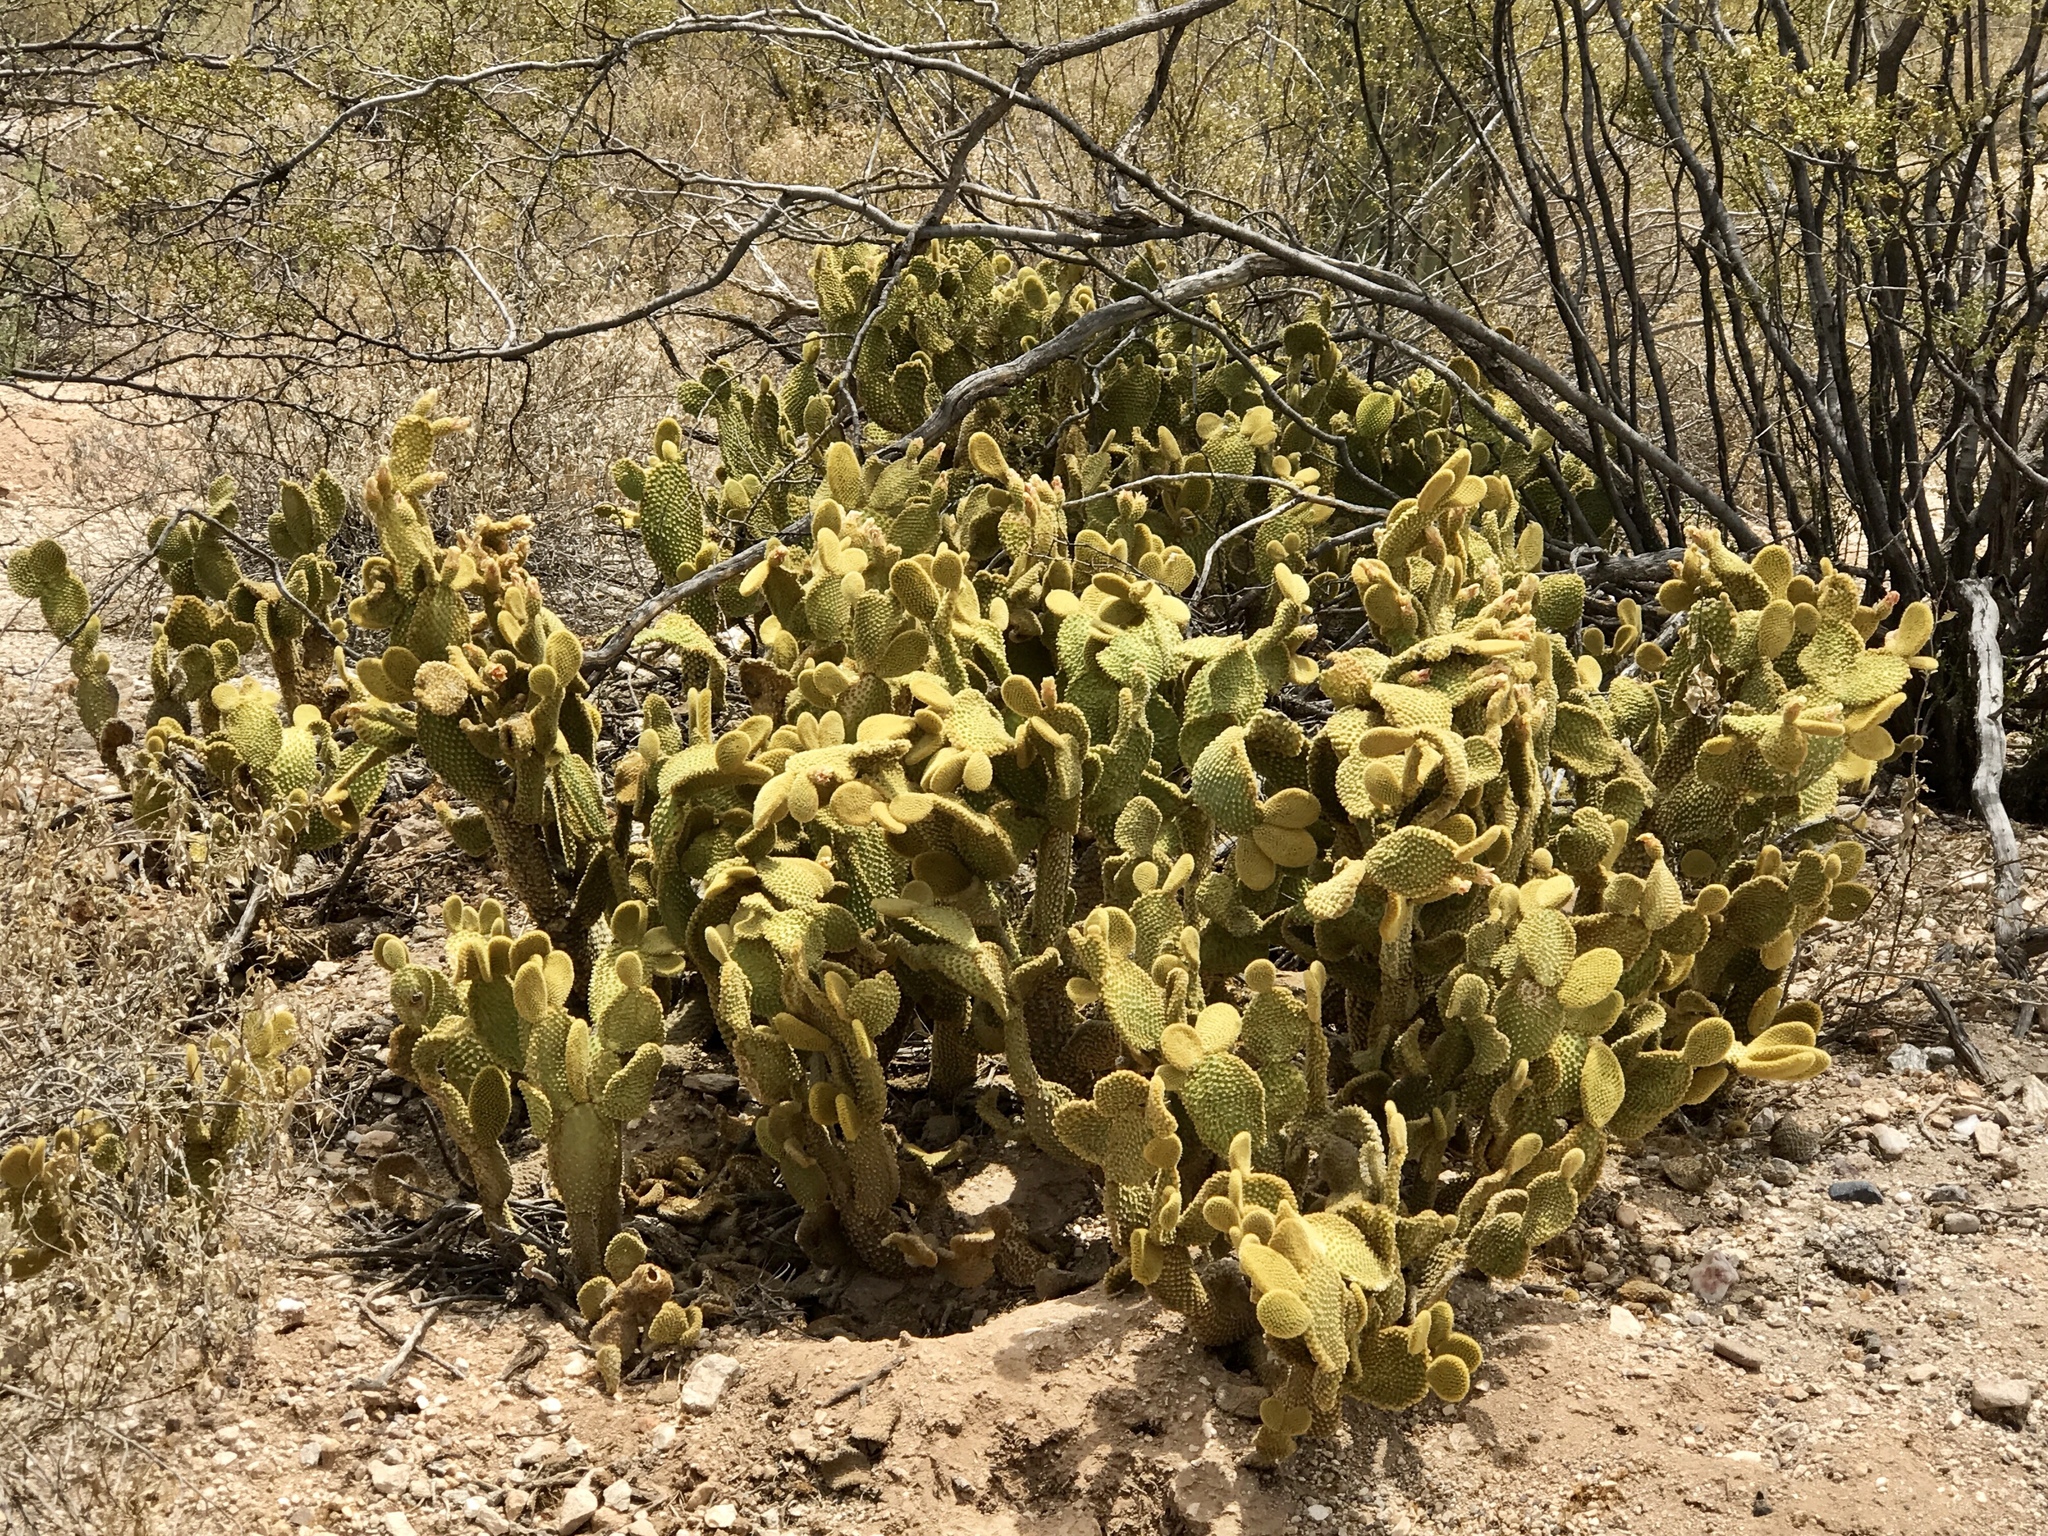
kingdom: Plantae
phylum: Tracheophyta
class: Magnoliopsida
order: Caryophyllales
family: Cactaceae
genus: Opuntia
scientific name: Opuntia microdasys
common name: Angel's-wings
